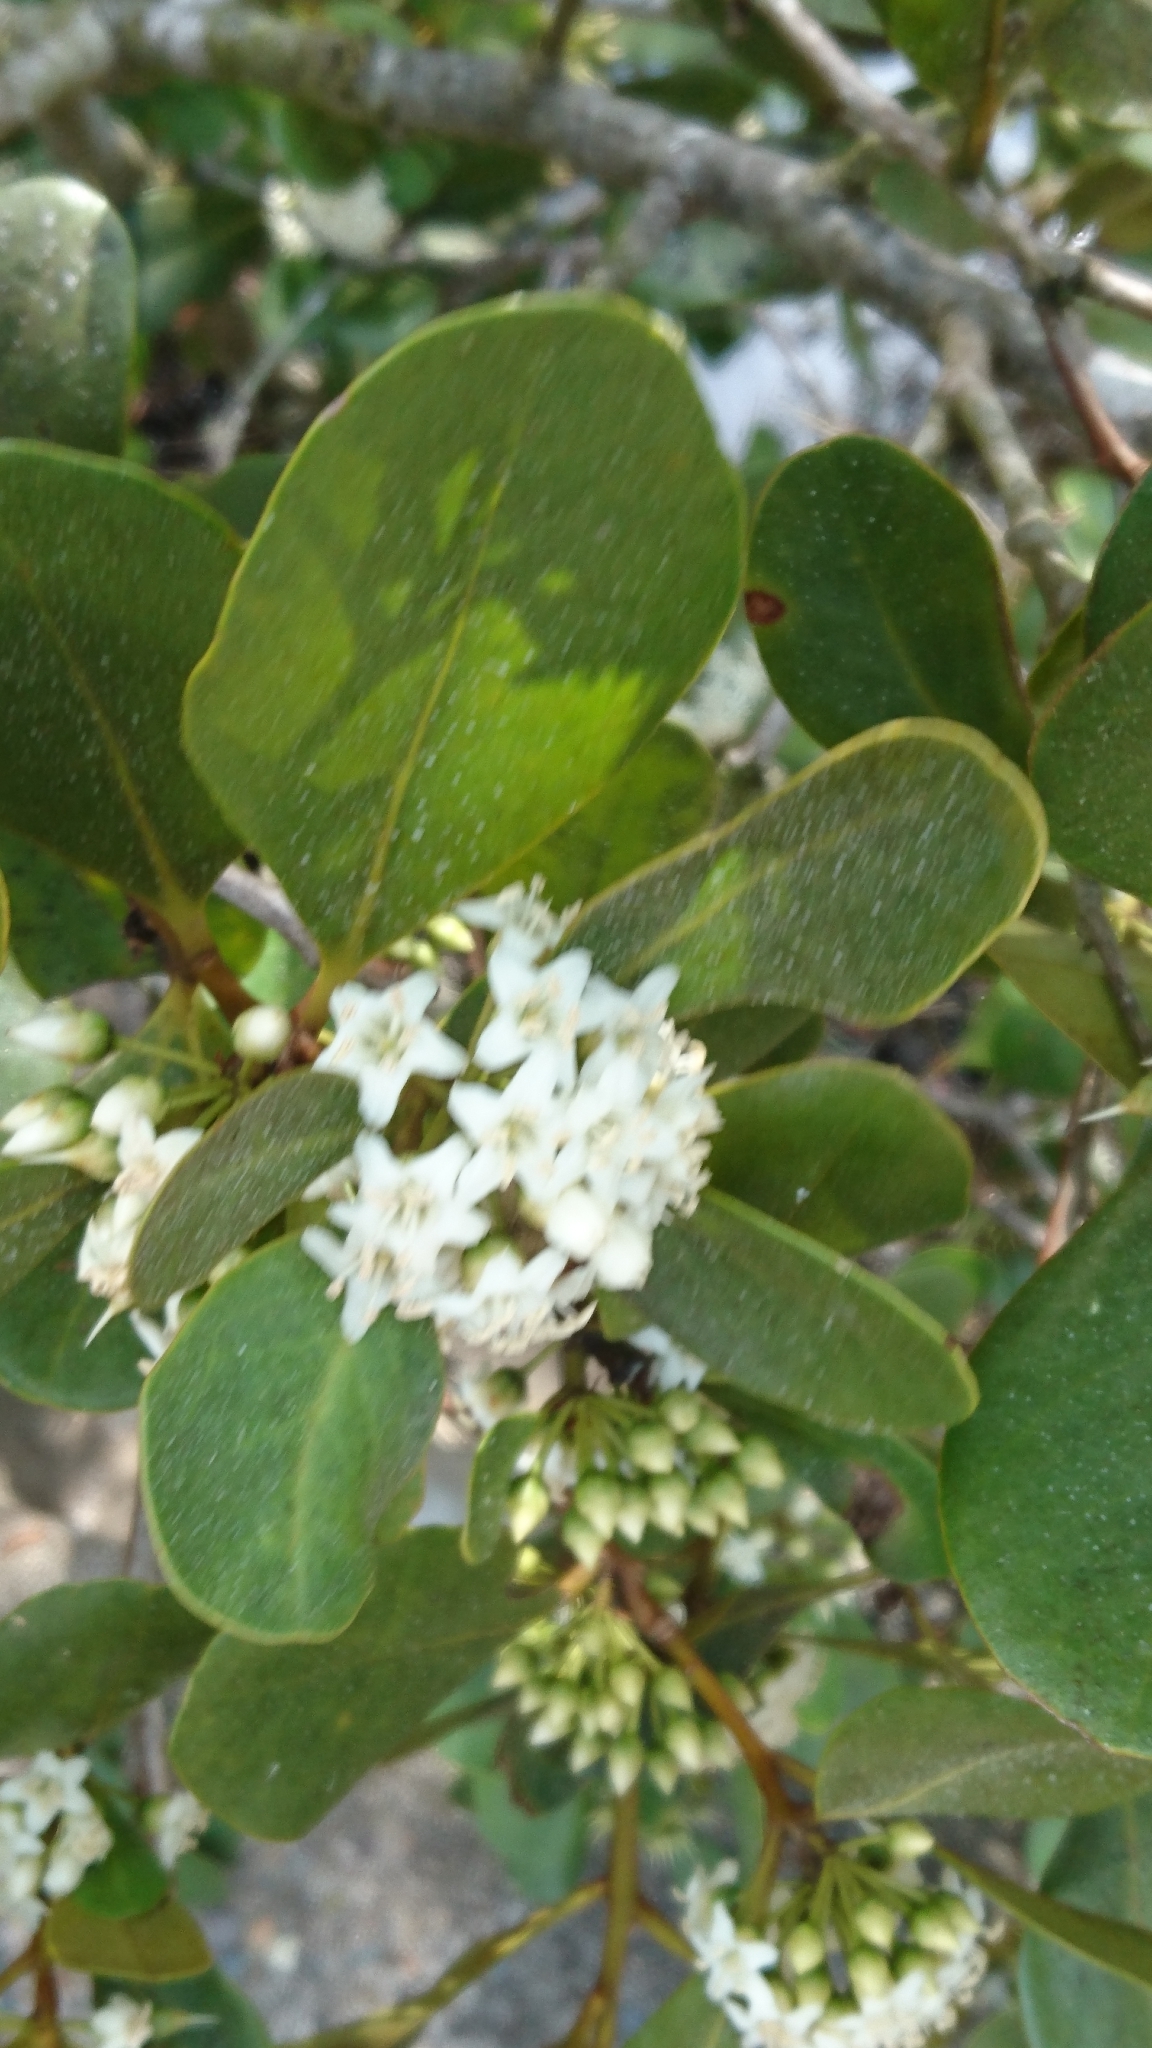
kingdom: Plantae
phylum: Tracheophyta
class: Magnoliopsida
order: Ericales
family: Primulaceae
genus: Aegiceras
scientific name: Aegiceras corniculatum
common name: River mangrove
